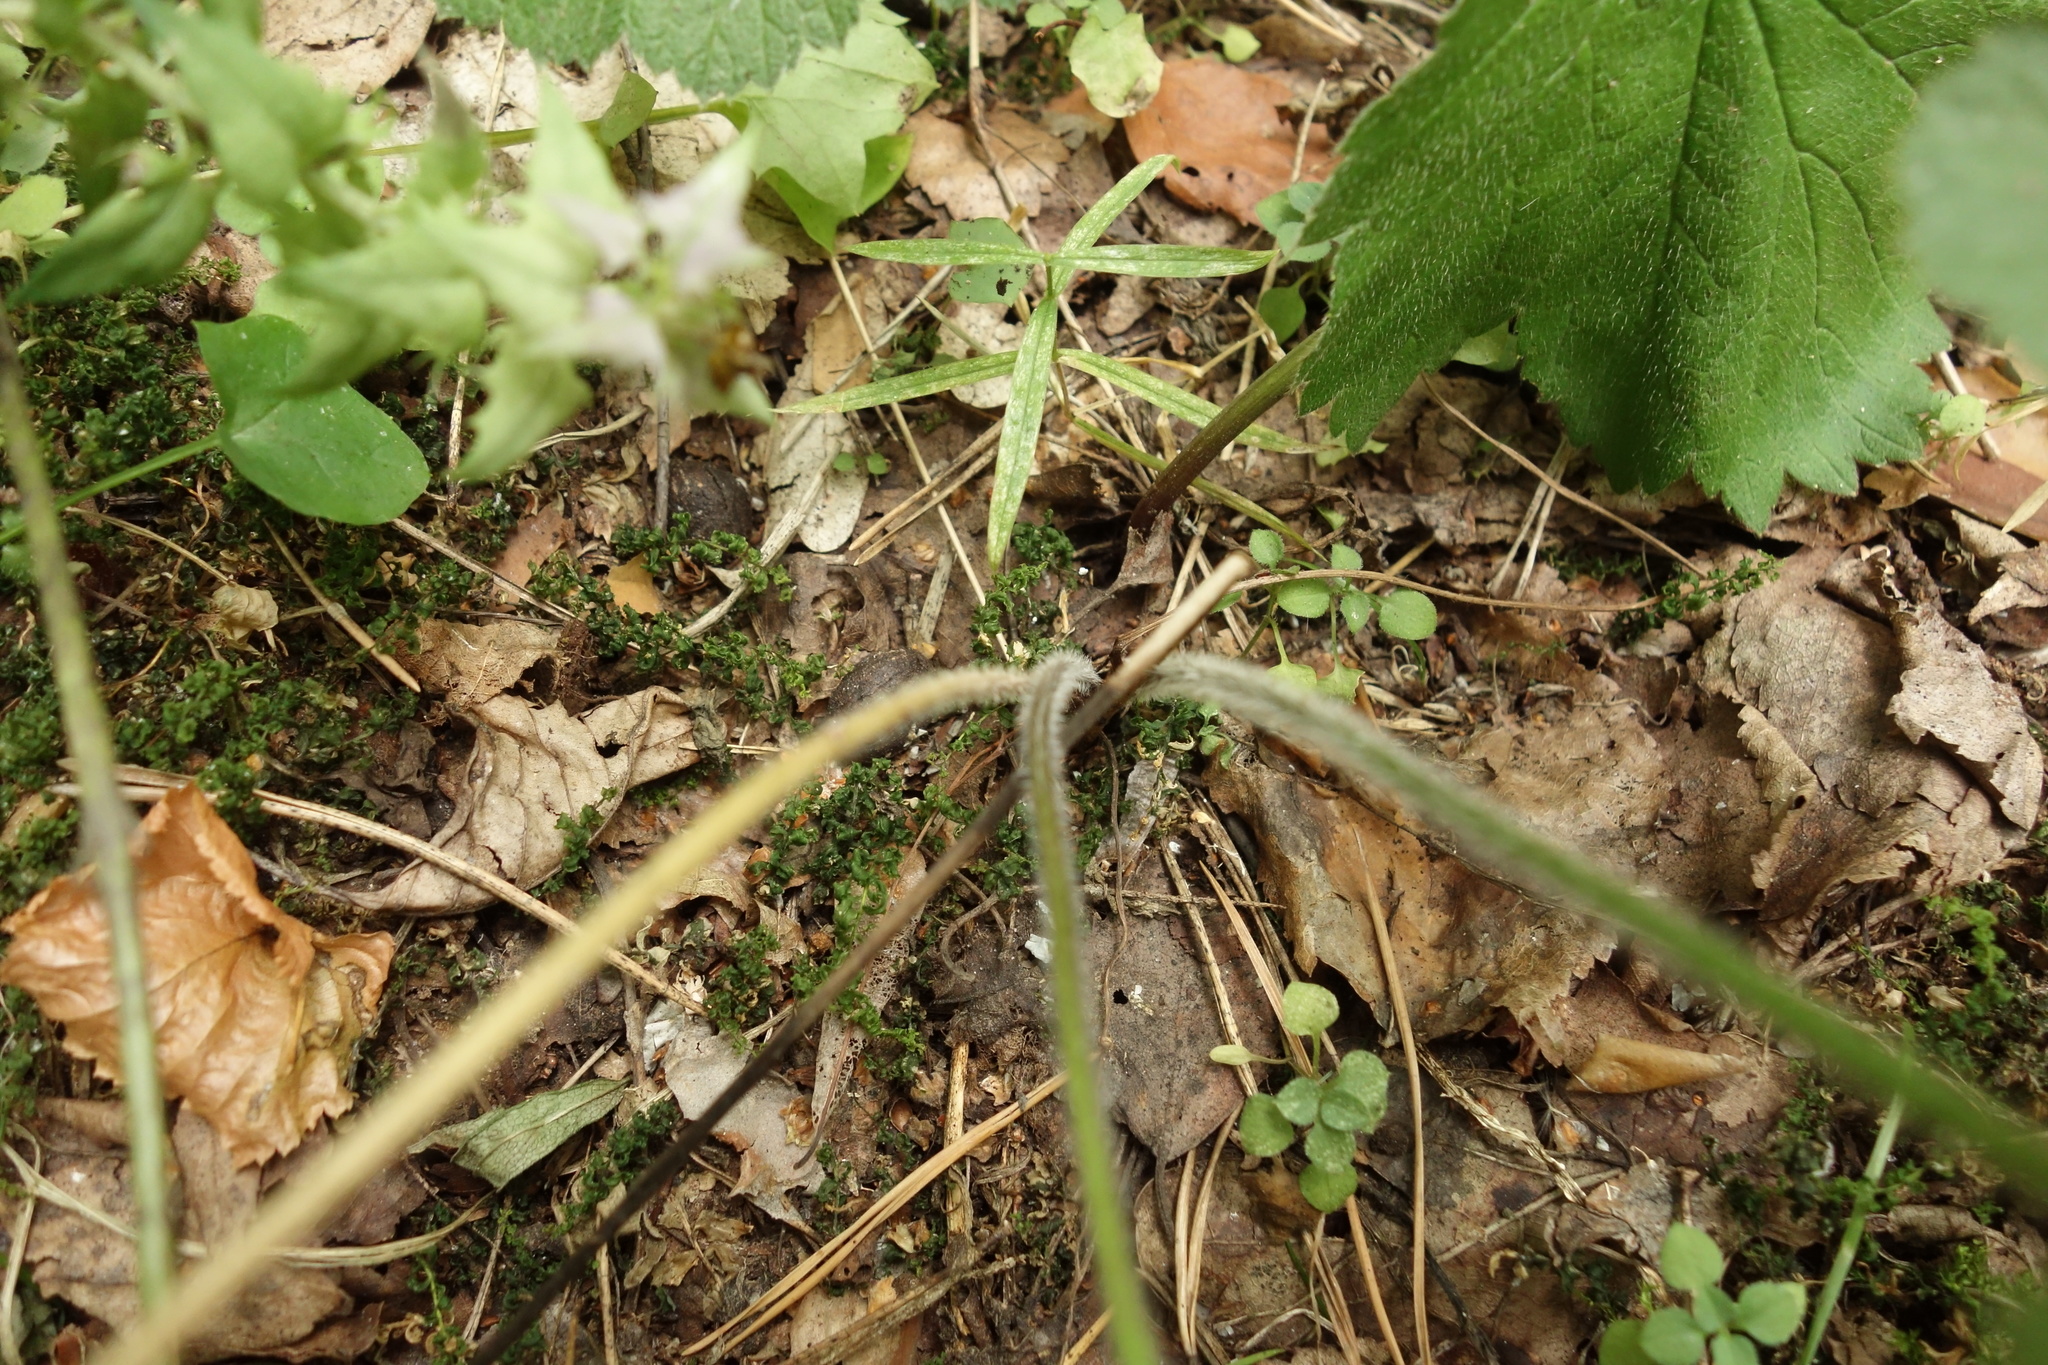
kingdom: Plantae
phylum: Tracheophyta
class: Magnoliopsida
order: Ranunculales
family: Ranunculaceae
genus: Ranunculus
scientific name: Ranunculus repens
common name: Creeping buttercup
